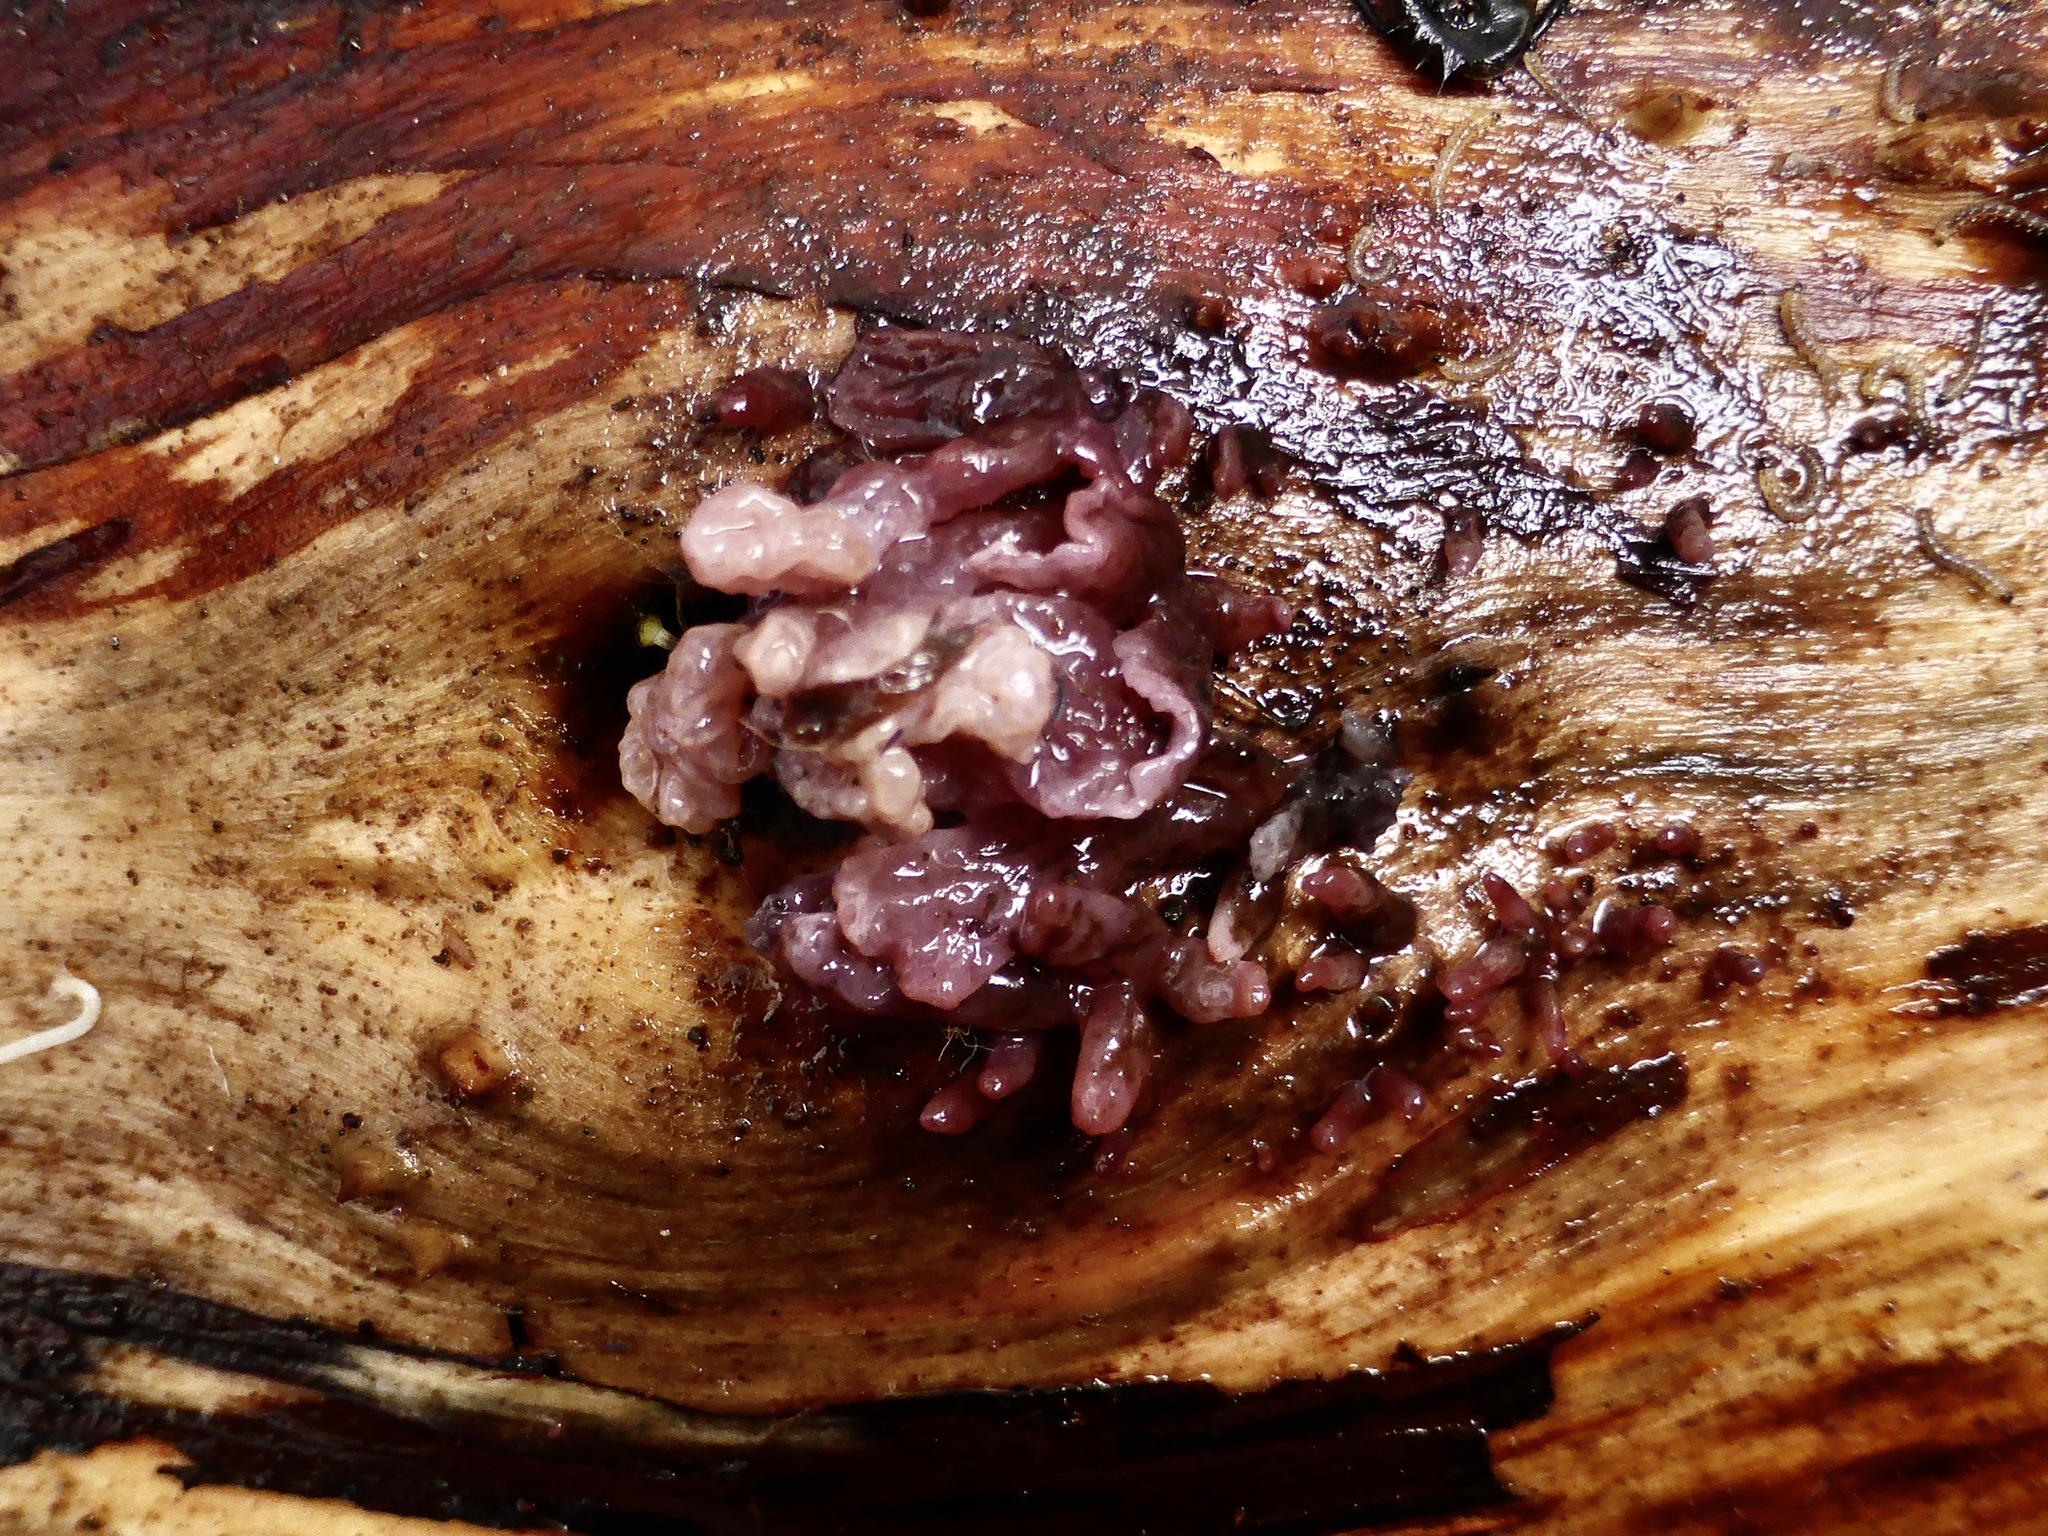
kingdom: Fungi
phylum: Ascomycota
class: Leotiomycetes
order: Helotiales
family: Gelatinodiscaceae
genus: Ascocoryne
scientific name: Ascocoryne sarcoides
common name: Purple jellydisc
